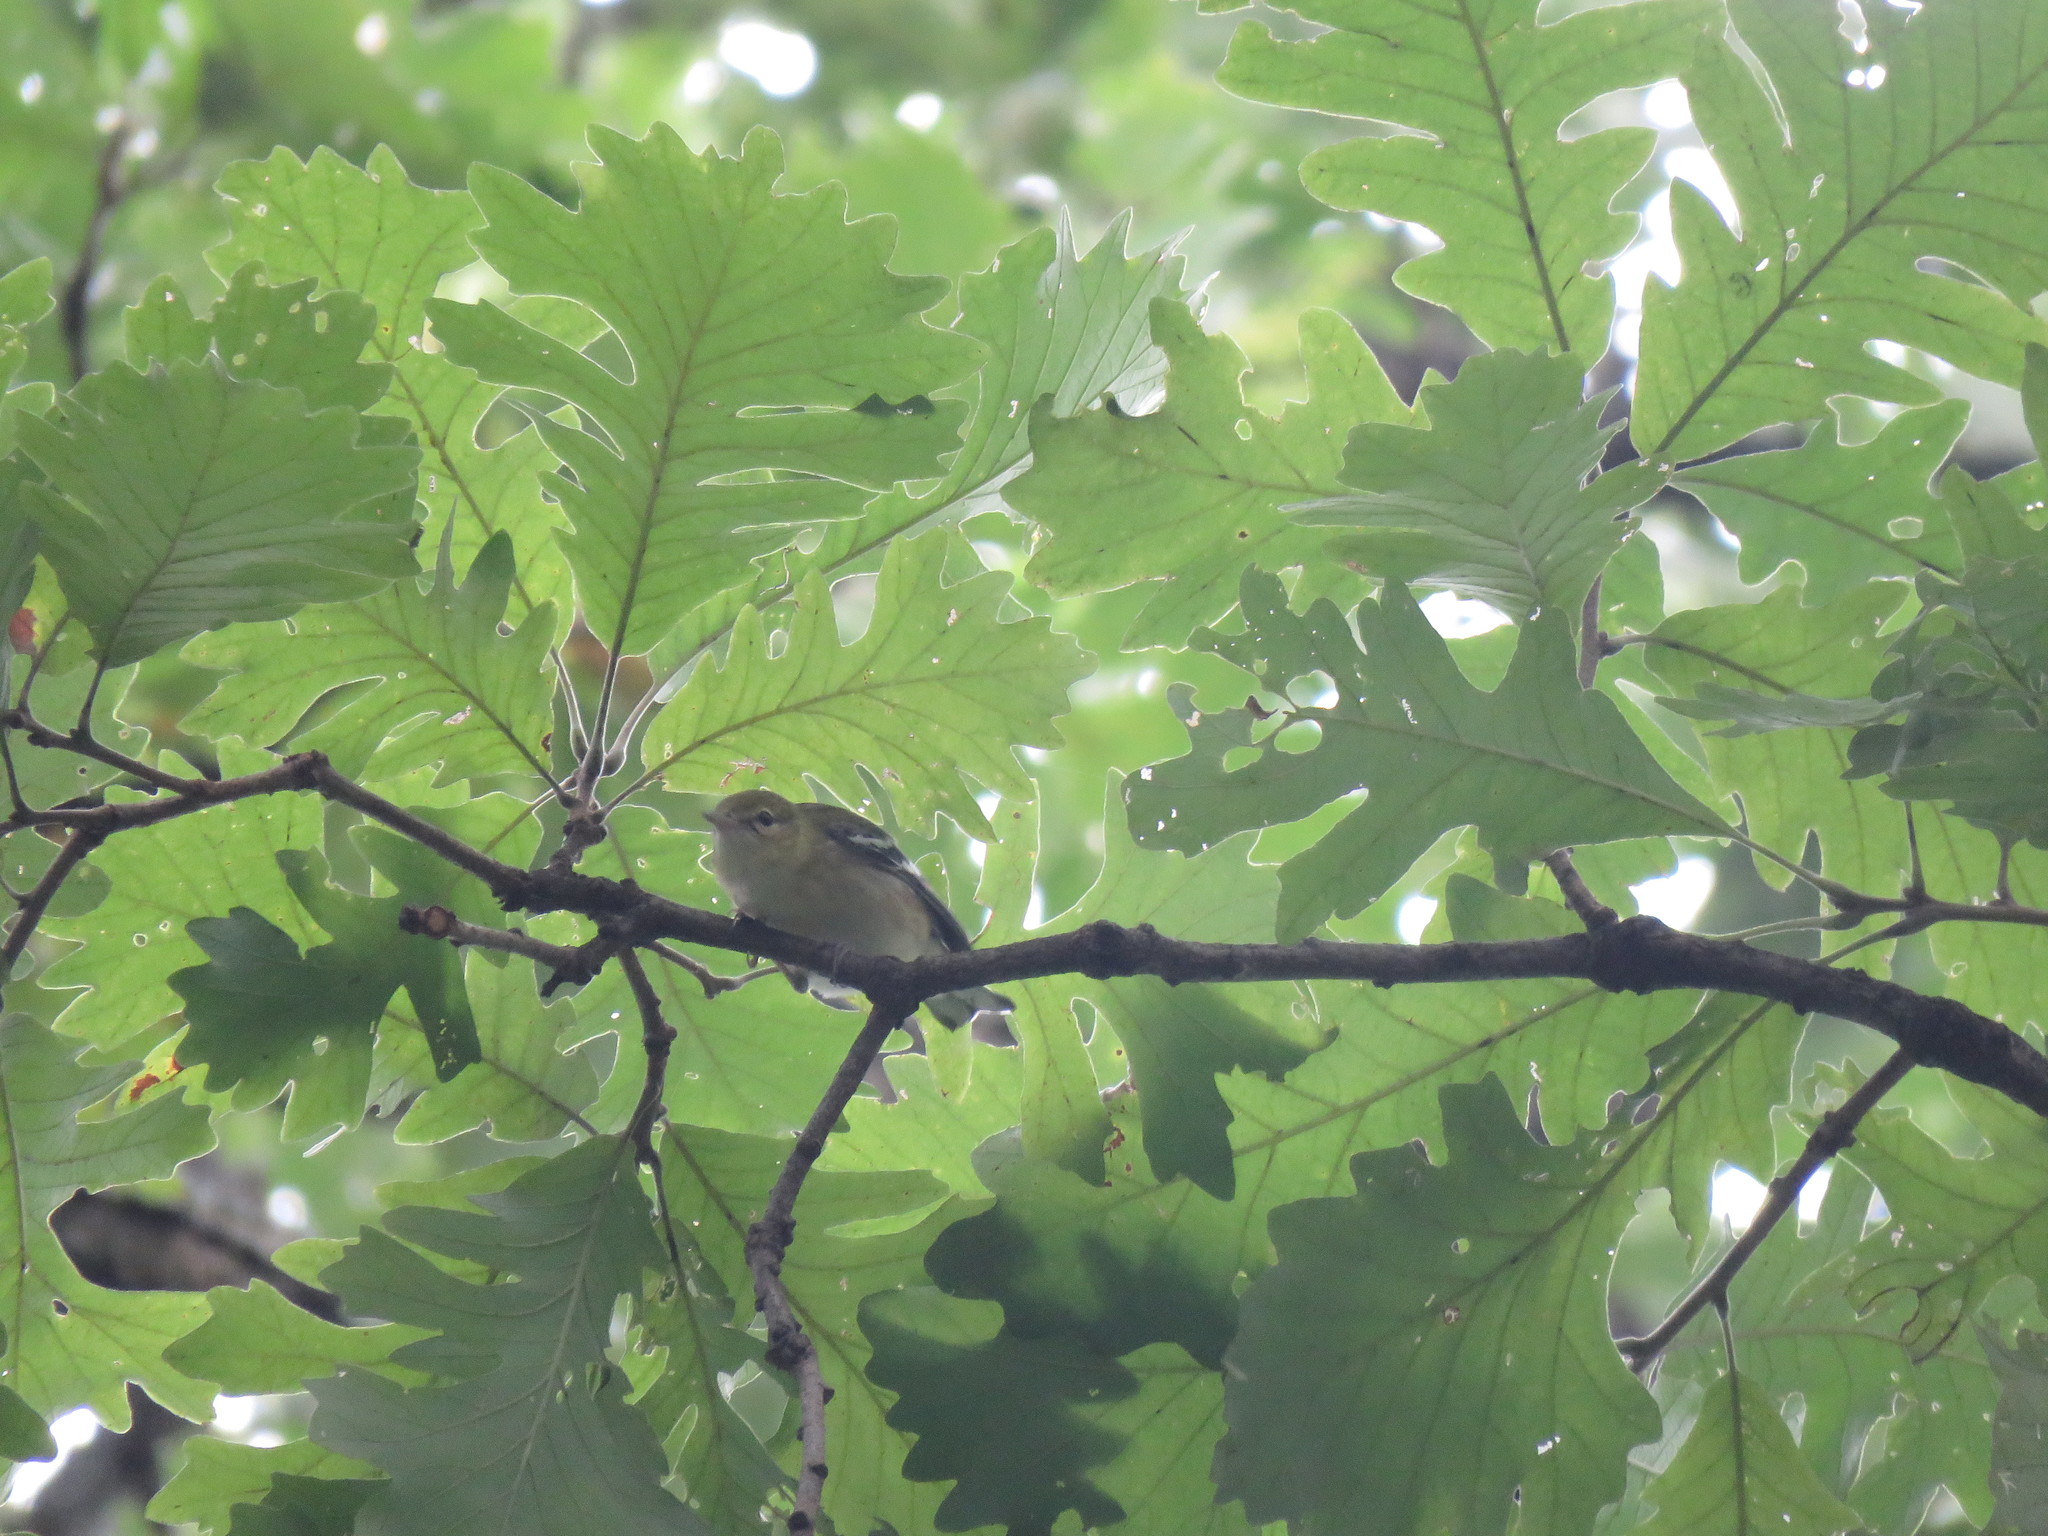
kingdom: Animalia
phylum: Chordata
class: Aves
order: Passeriformes
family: Parulidae
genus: Setophaga
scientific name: Setophaga castanea
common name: Bay-breasted warbler
